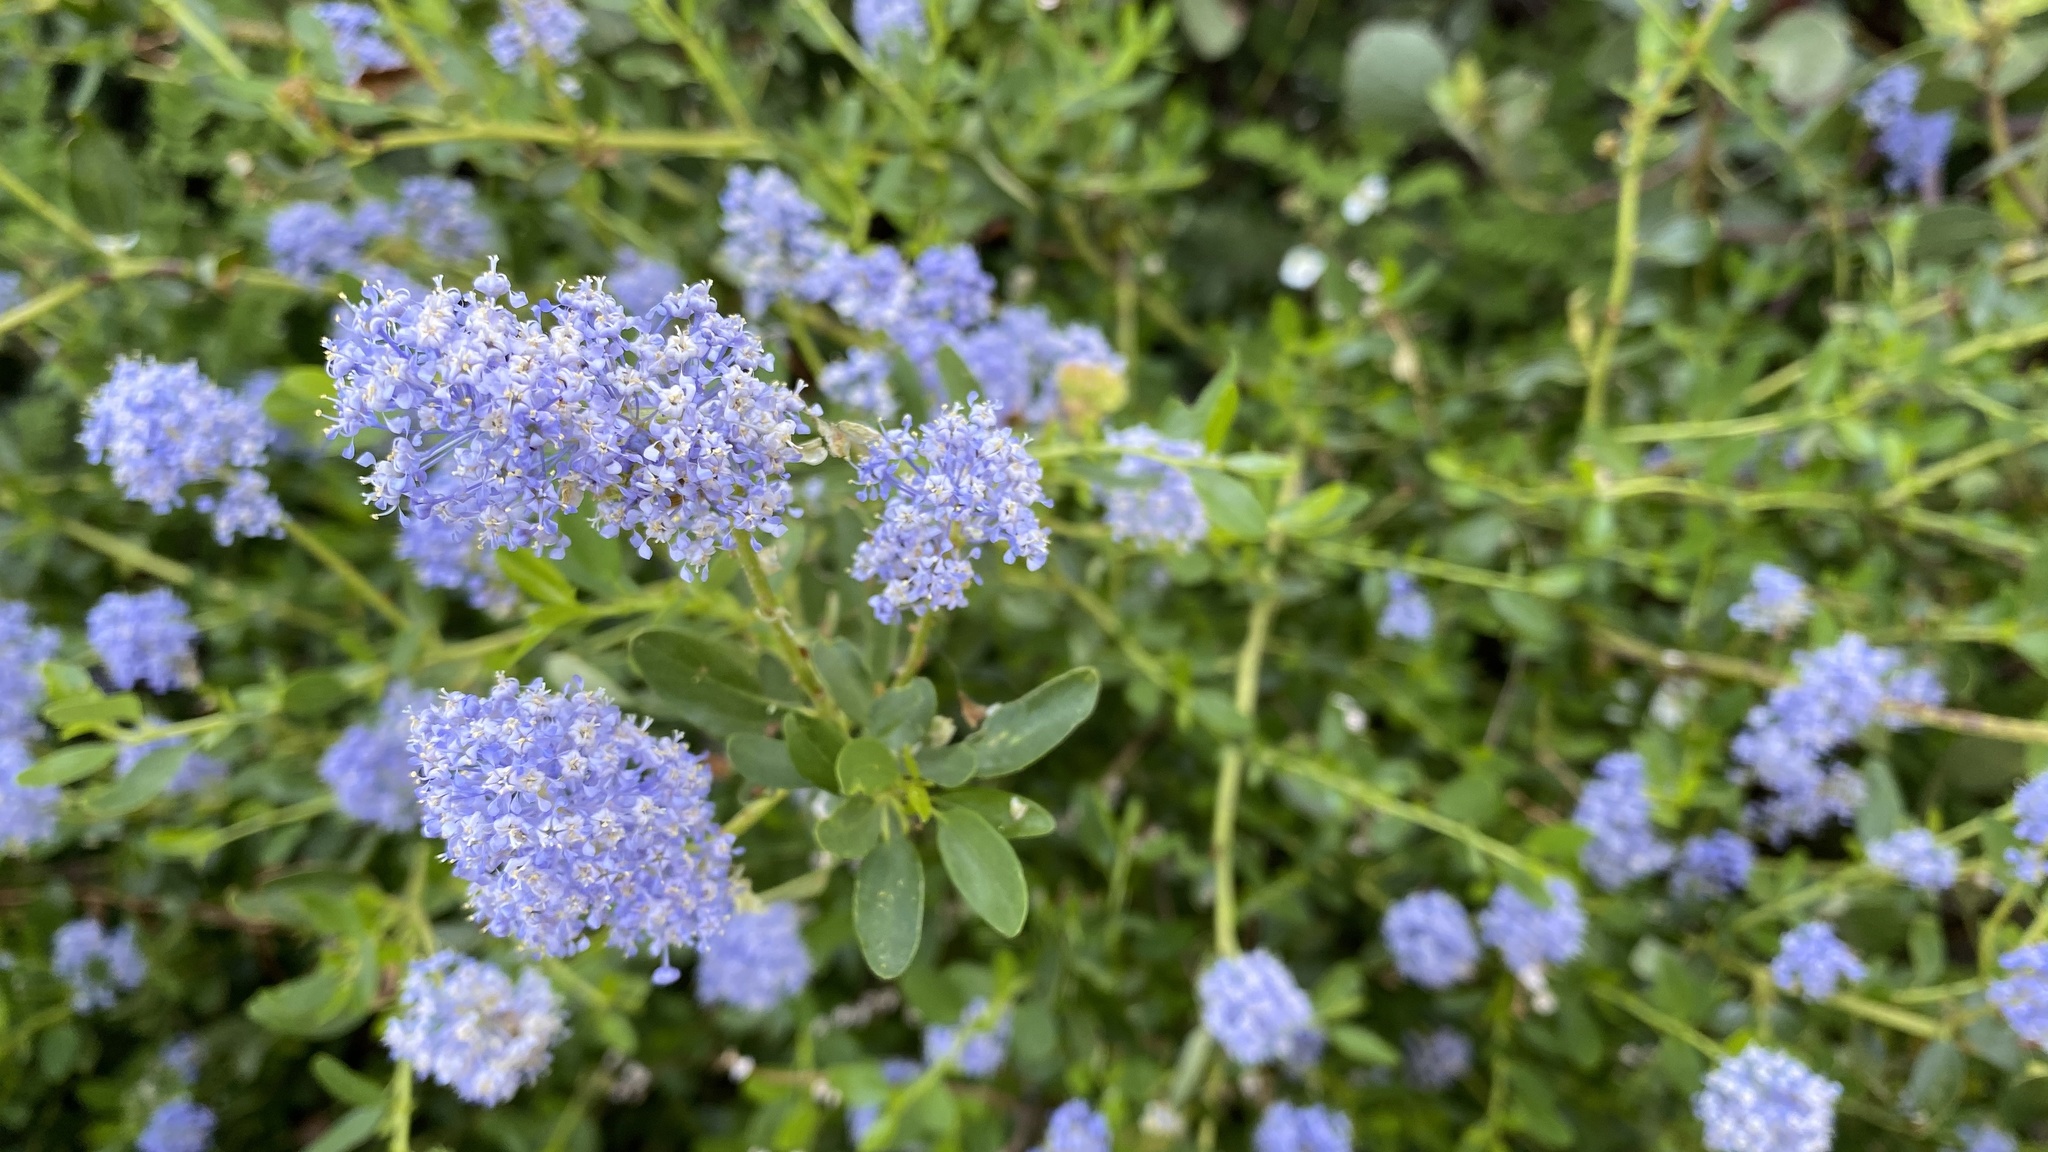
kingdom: Plantae
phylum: Tracheophyta
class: Magnoliopsida
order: Rosales
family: Rhamnaceae
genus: Ceanothus
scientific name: Ceanothus parvifolius
